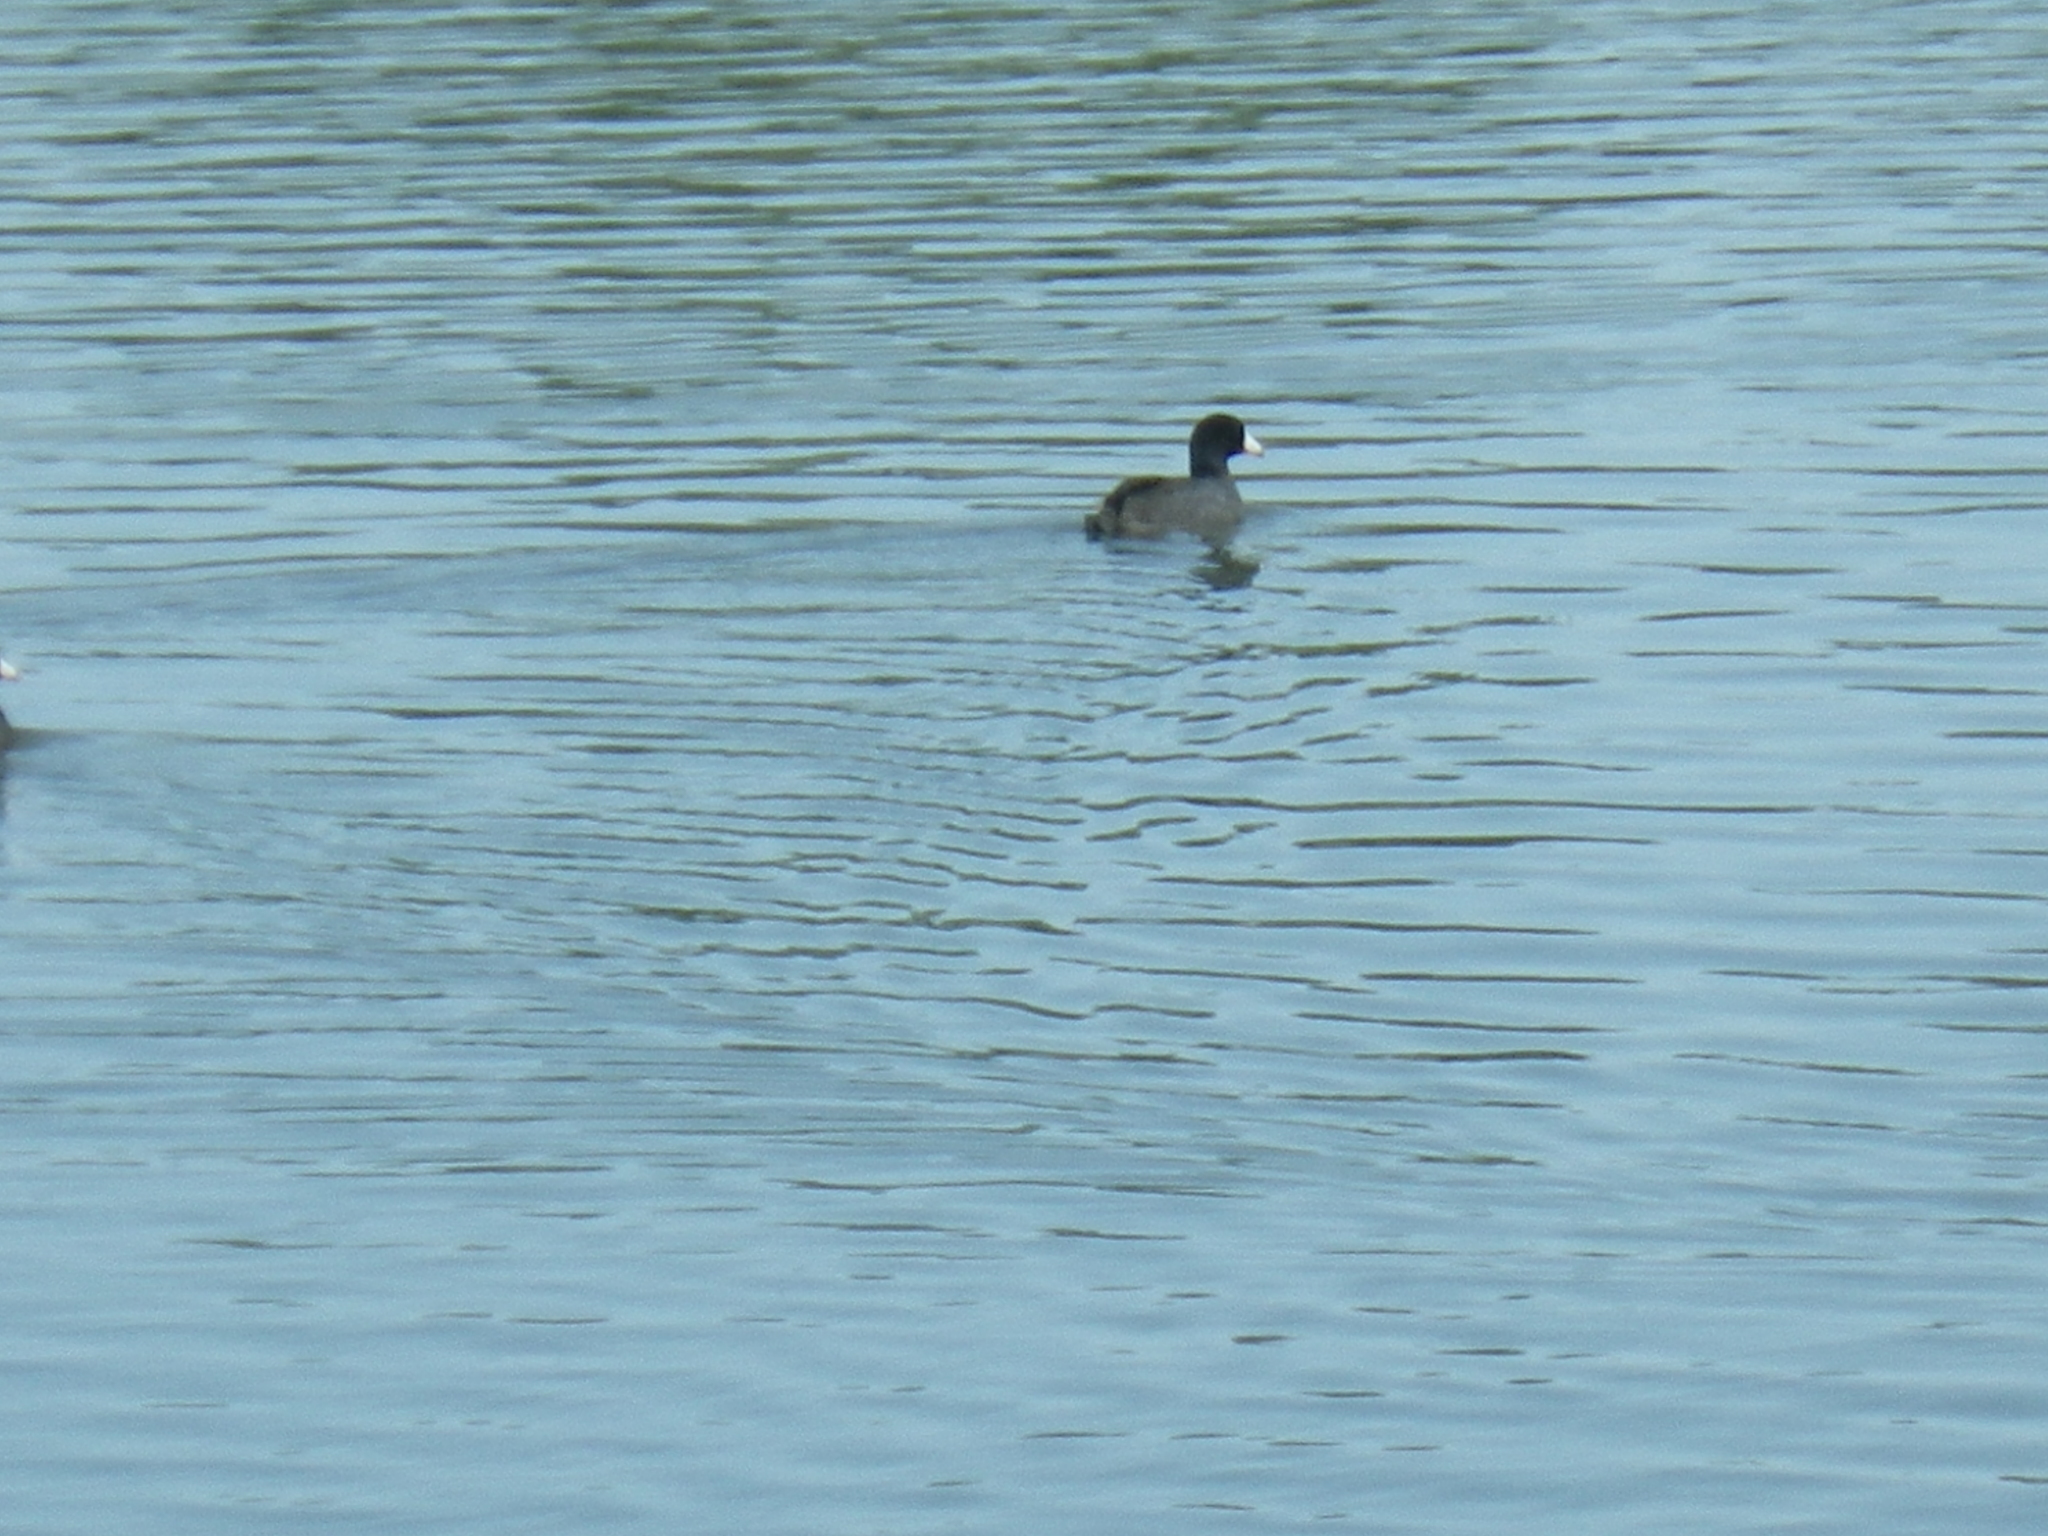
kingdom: Animalia
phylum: Chordata
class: Aves
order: Gruiformes
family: Rallidae
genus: Fulica
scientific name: Fulica americana
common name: American coot
